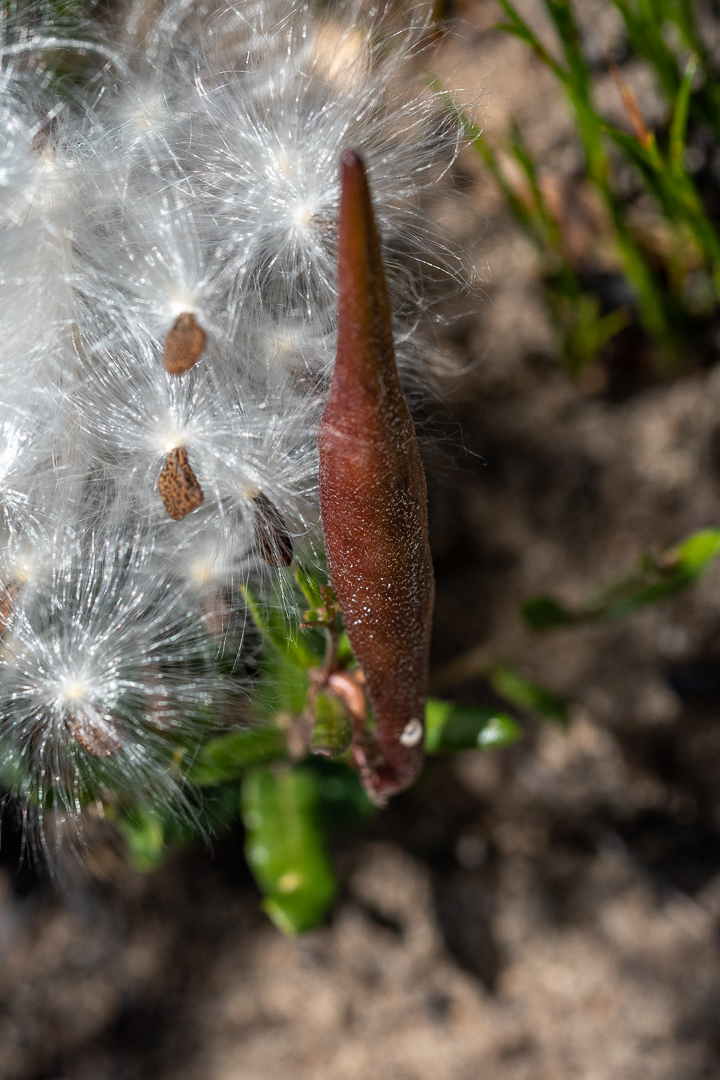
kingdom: Plantae
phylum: Tracheophyta
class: Magnoliopsida
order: Gentianales
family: Apocynaceae
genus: Astephanus
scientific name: Astephanus triflorus
